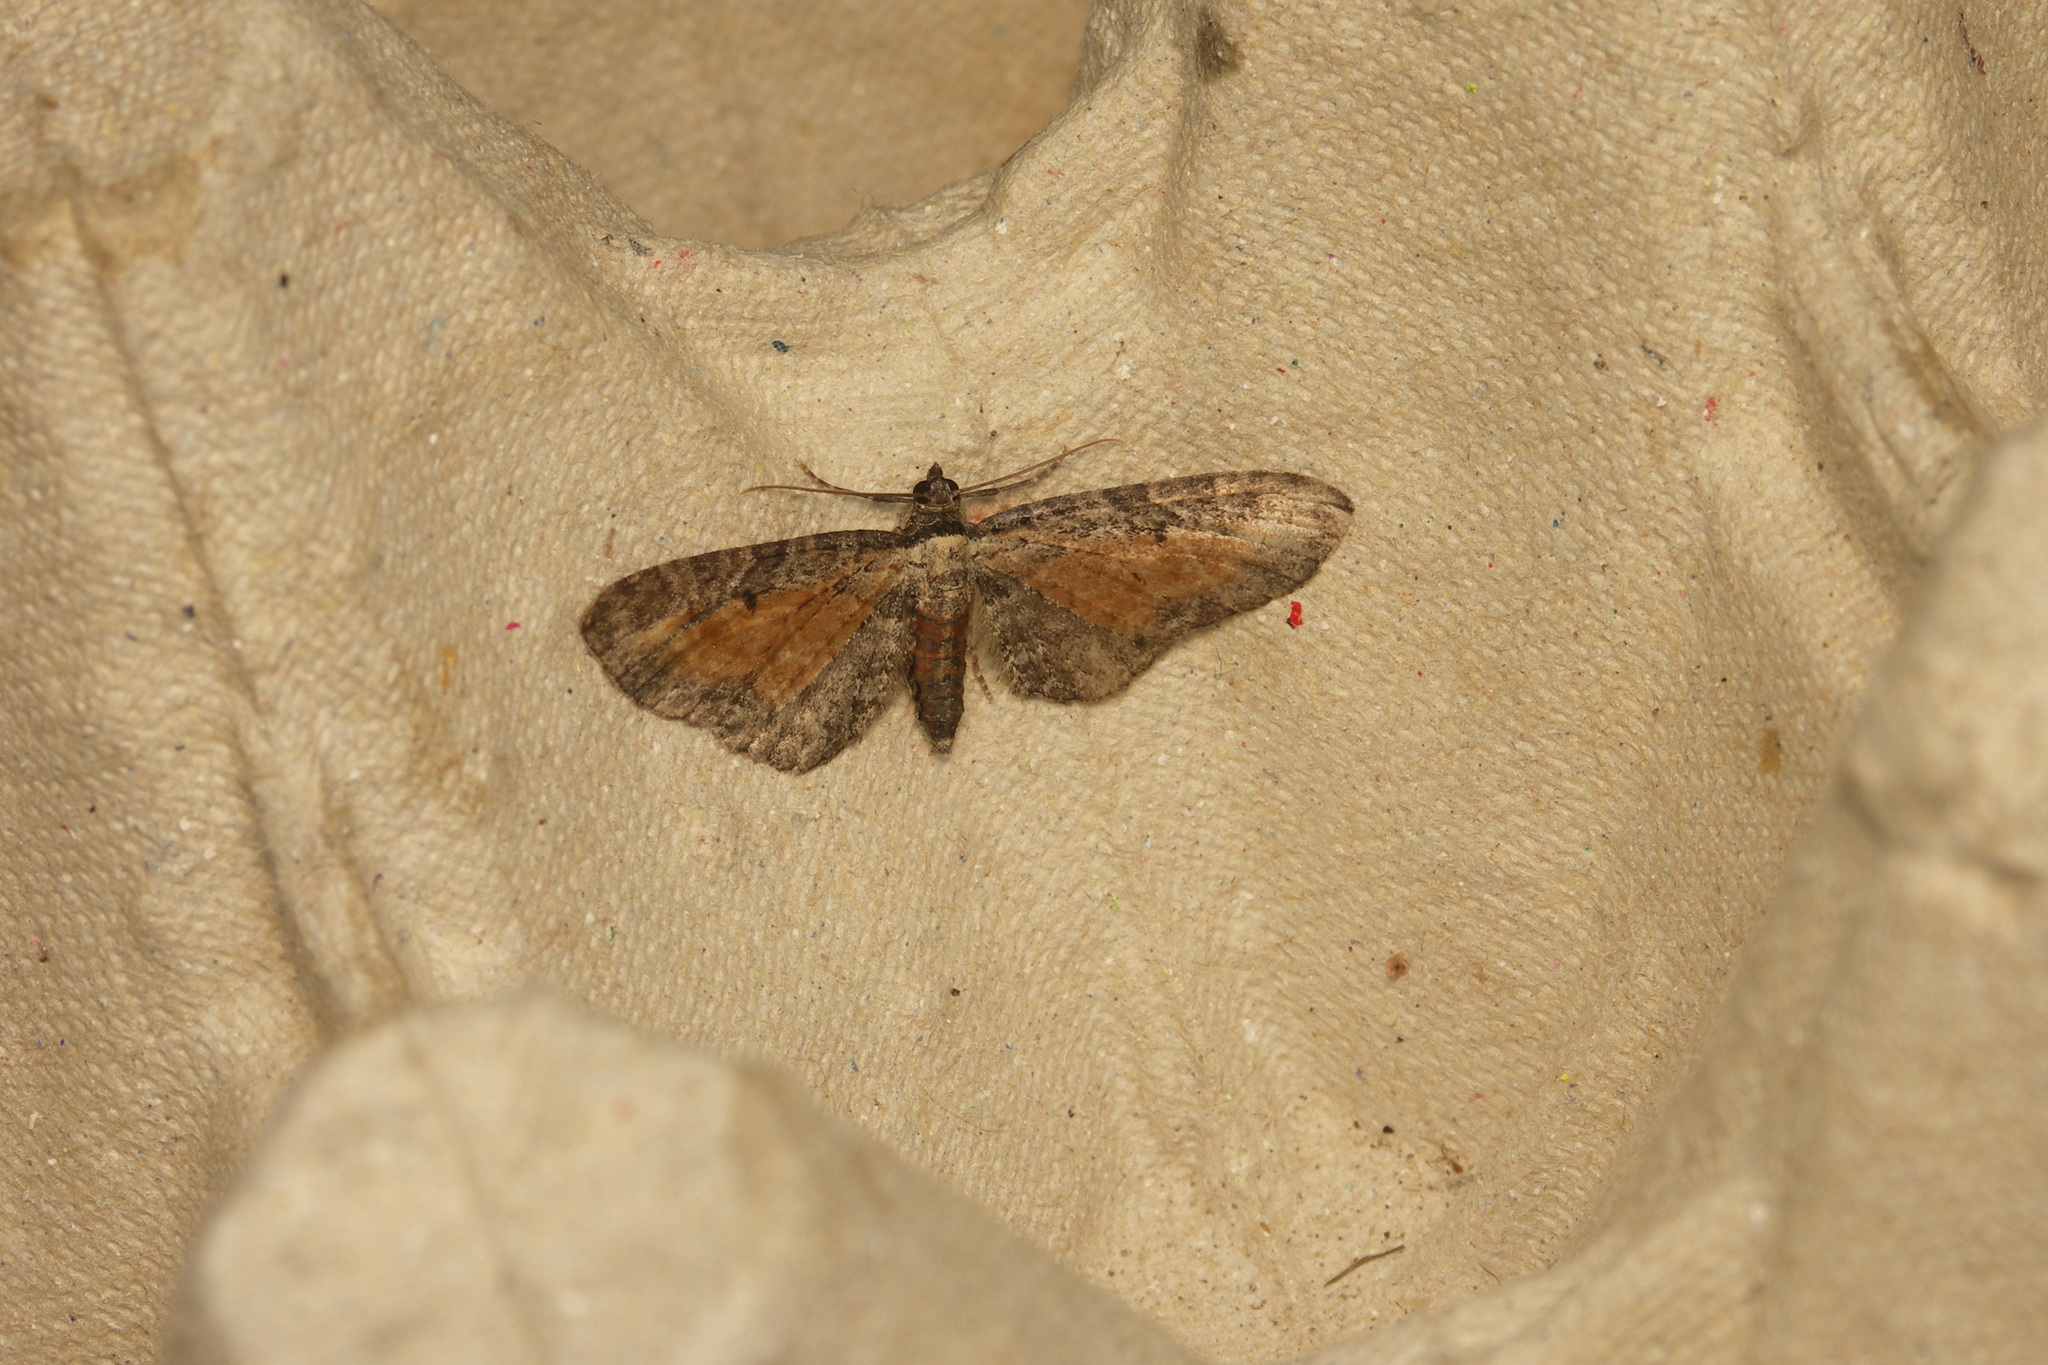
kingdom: Animalia
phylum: Arthropoda
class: Insecta
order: Lepidoptera
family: Geometridae
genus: Eupithecia
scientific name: Eupithecia icterata
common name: Tawny speckled pug
